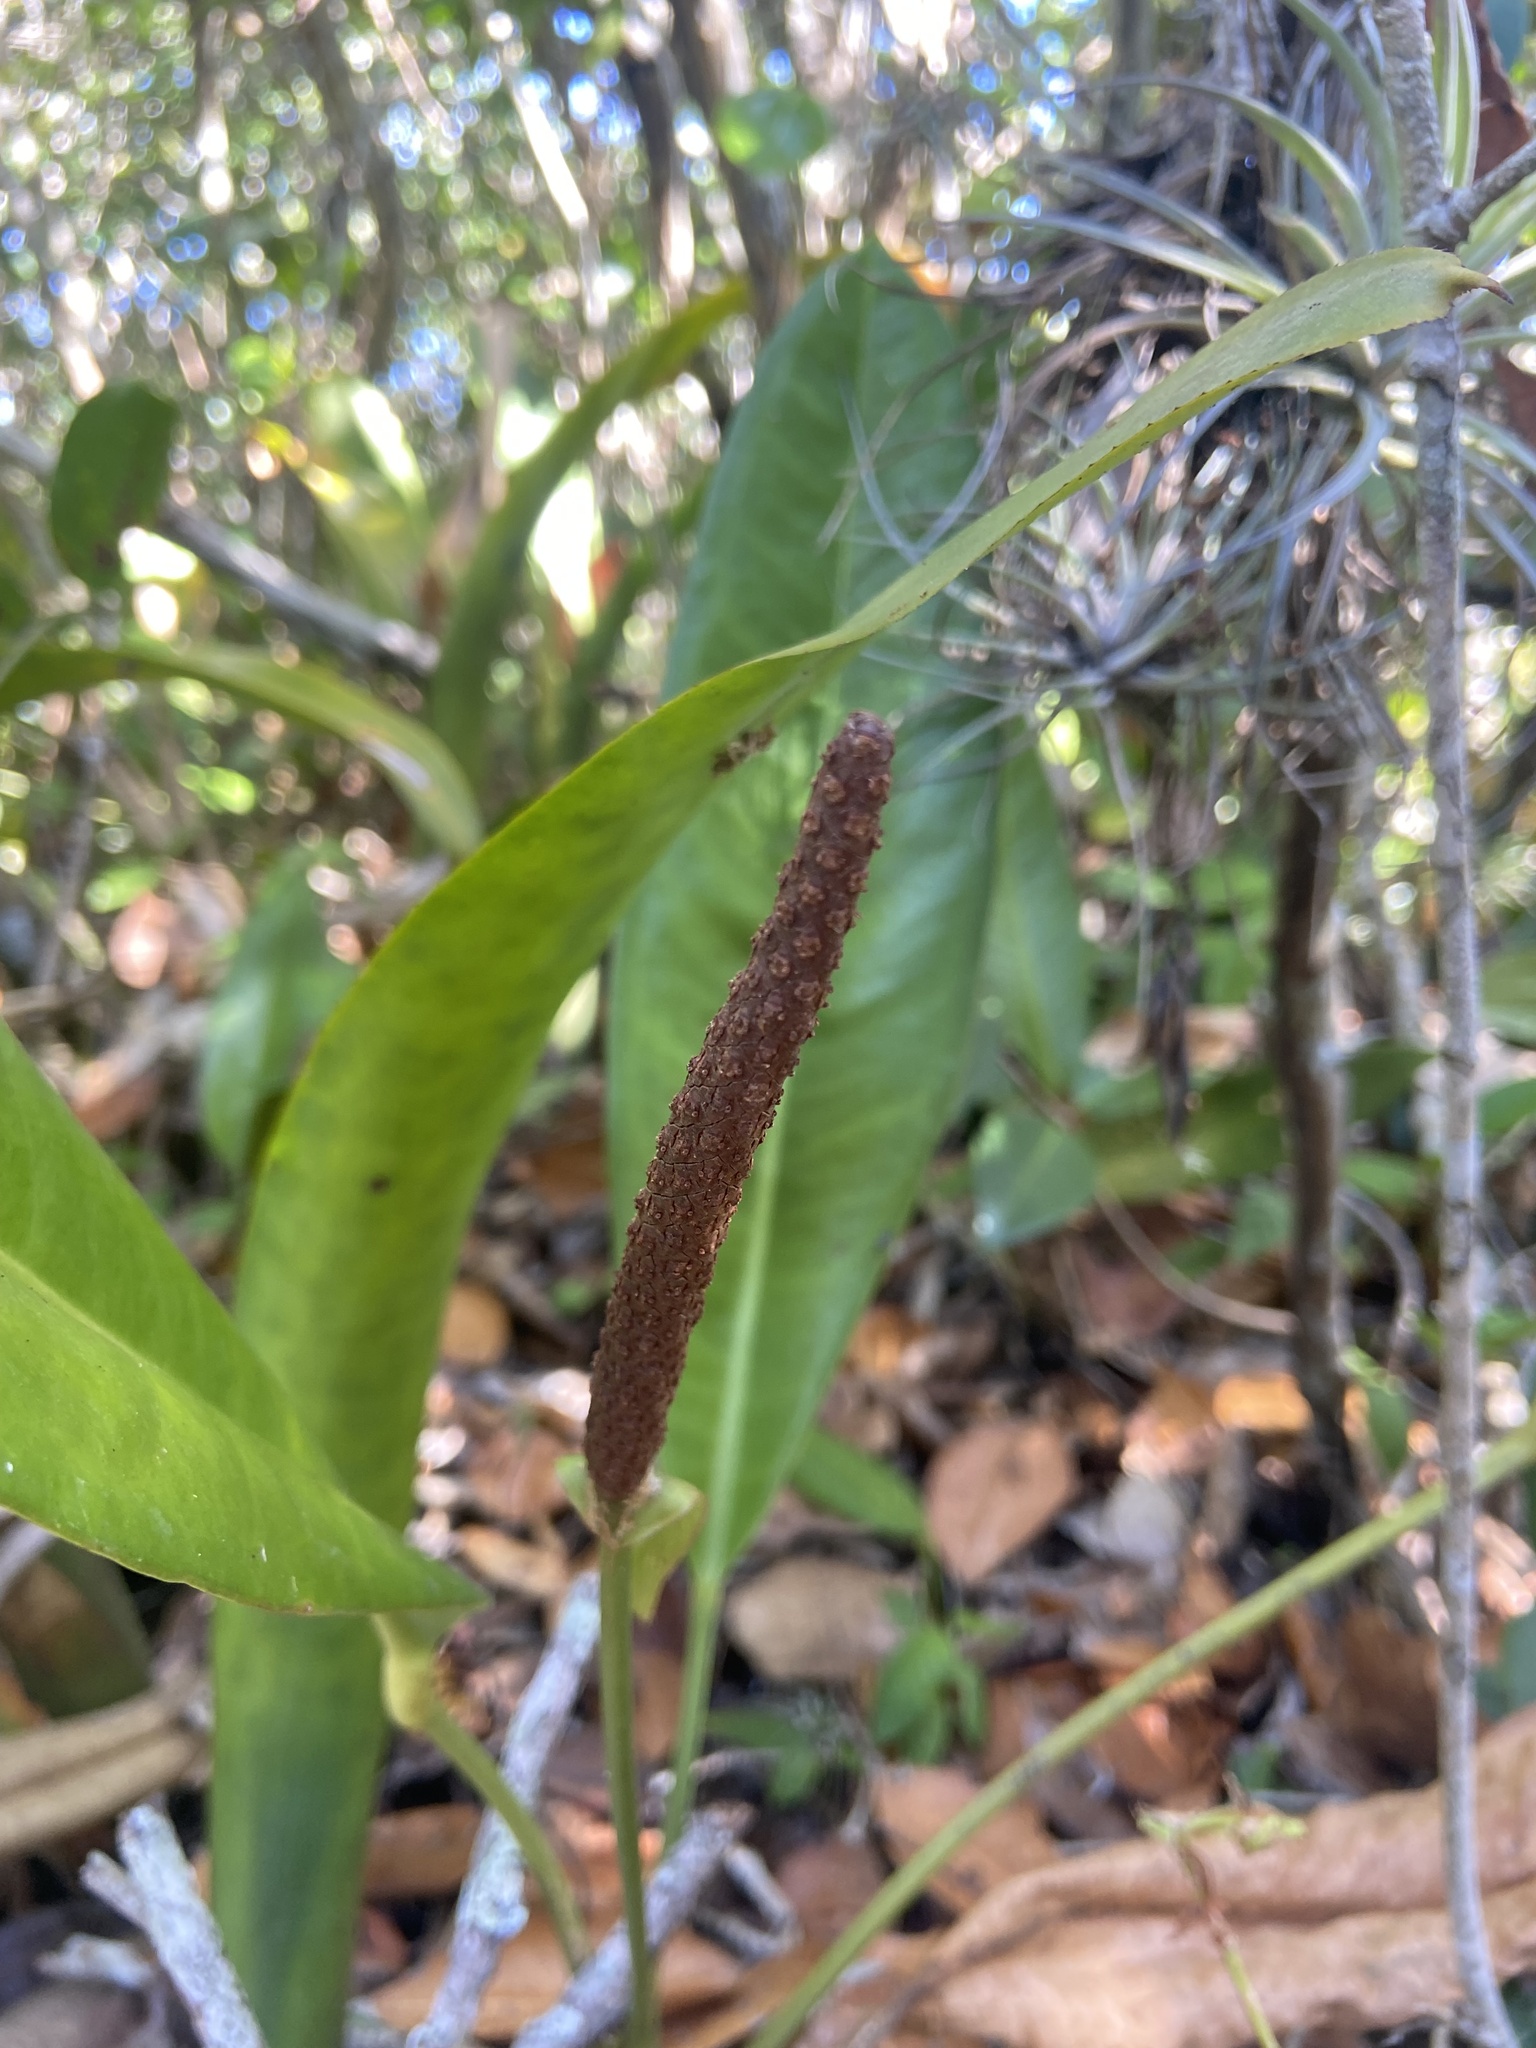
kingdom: Plantae
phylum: Tracheophyta
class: Liliopsida
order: Alismatales
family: Araceae
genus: Anthurium
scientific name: Anthurium parasiticum
